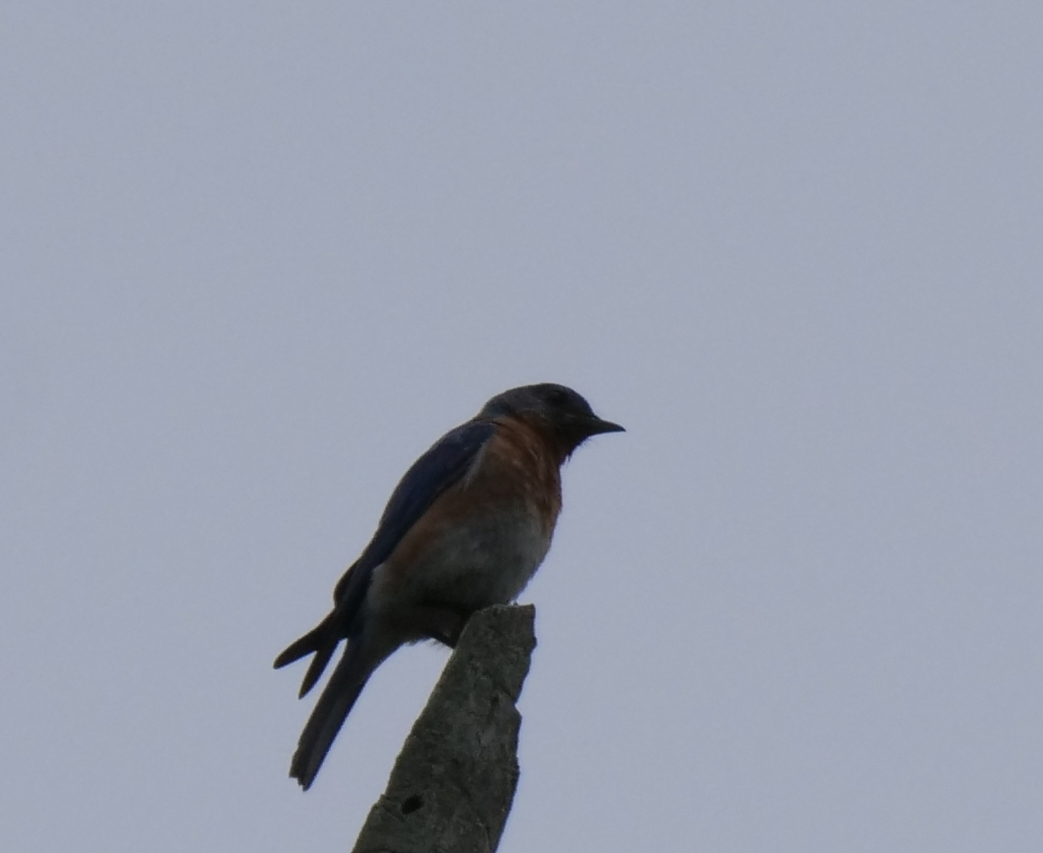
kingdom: Animalia
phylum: Chordata
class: Aves
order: Passeriformes
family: Turdidae
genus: Sialia
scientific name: Sialia sialis
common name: Eastern bluebird
